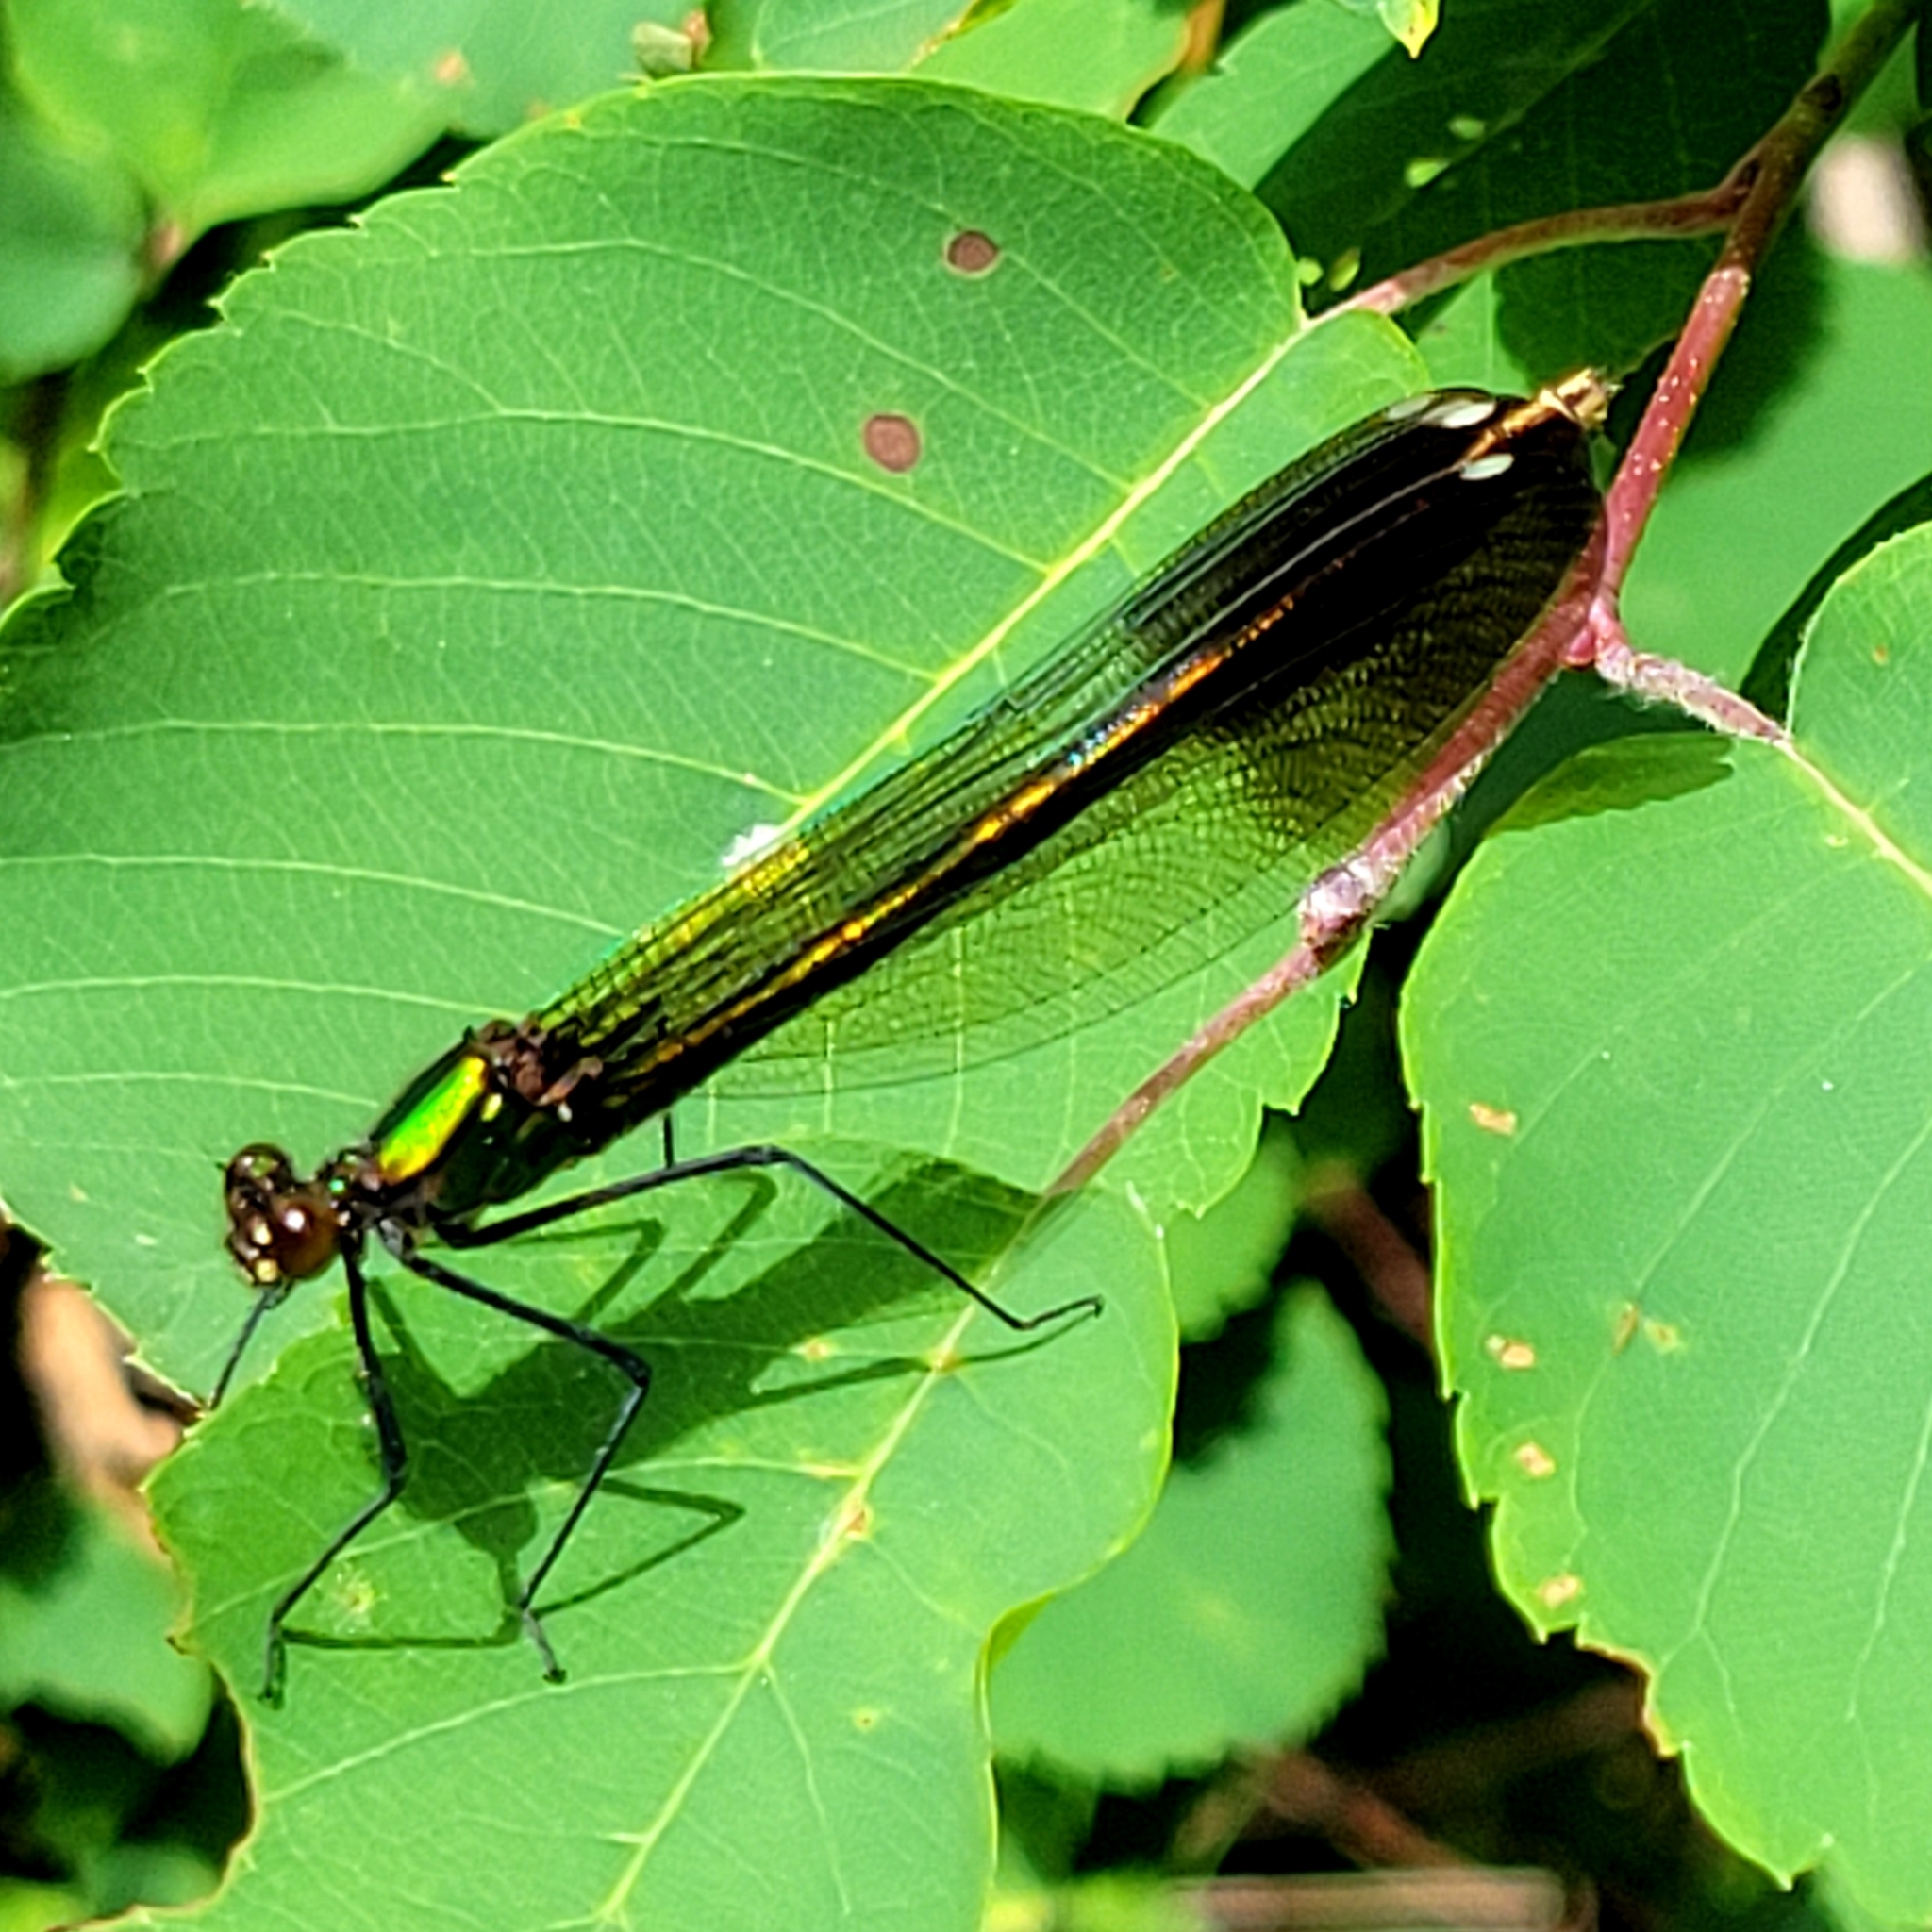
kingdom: Animalia
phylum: Arthropoda
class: Insecta
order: Odonata
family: Calopterygidae
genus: Calopteryx
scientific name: Calopteryx aequabilis
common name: River jewelwing
